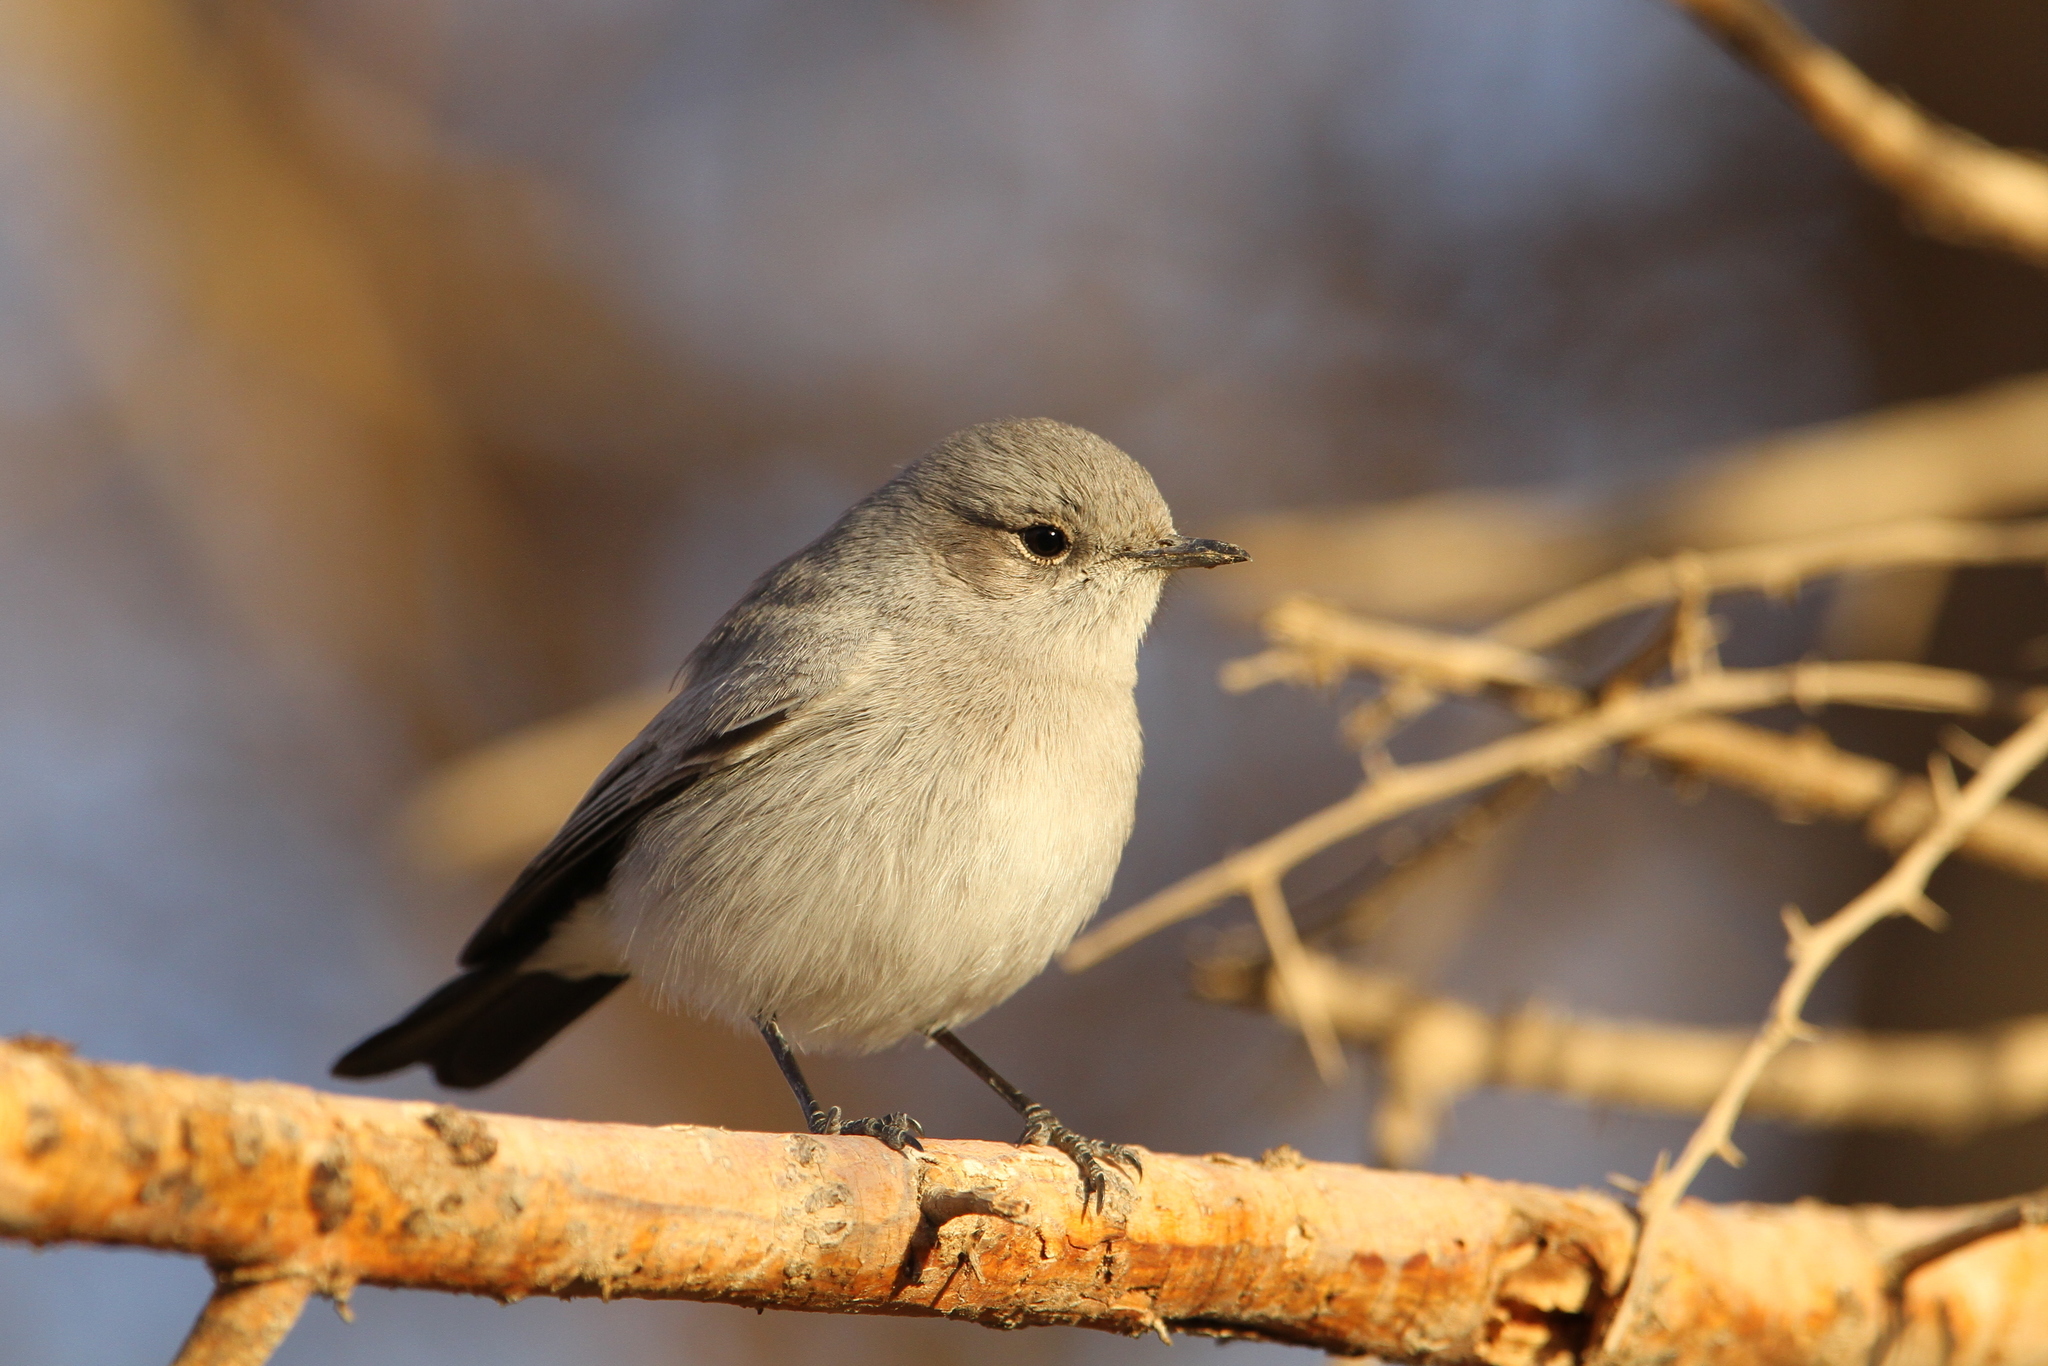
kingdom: Animalia
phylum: Chordata
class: Aves
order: Passeriformes
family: Muscicapidae
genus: Oenanthe
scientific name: Oenanthe melanura
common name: Blackstart
